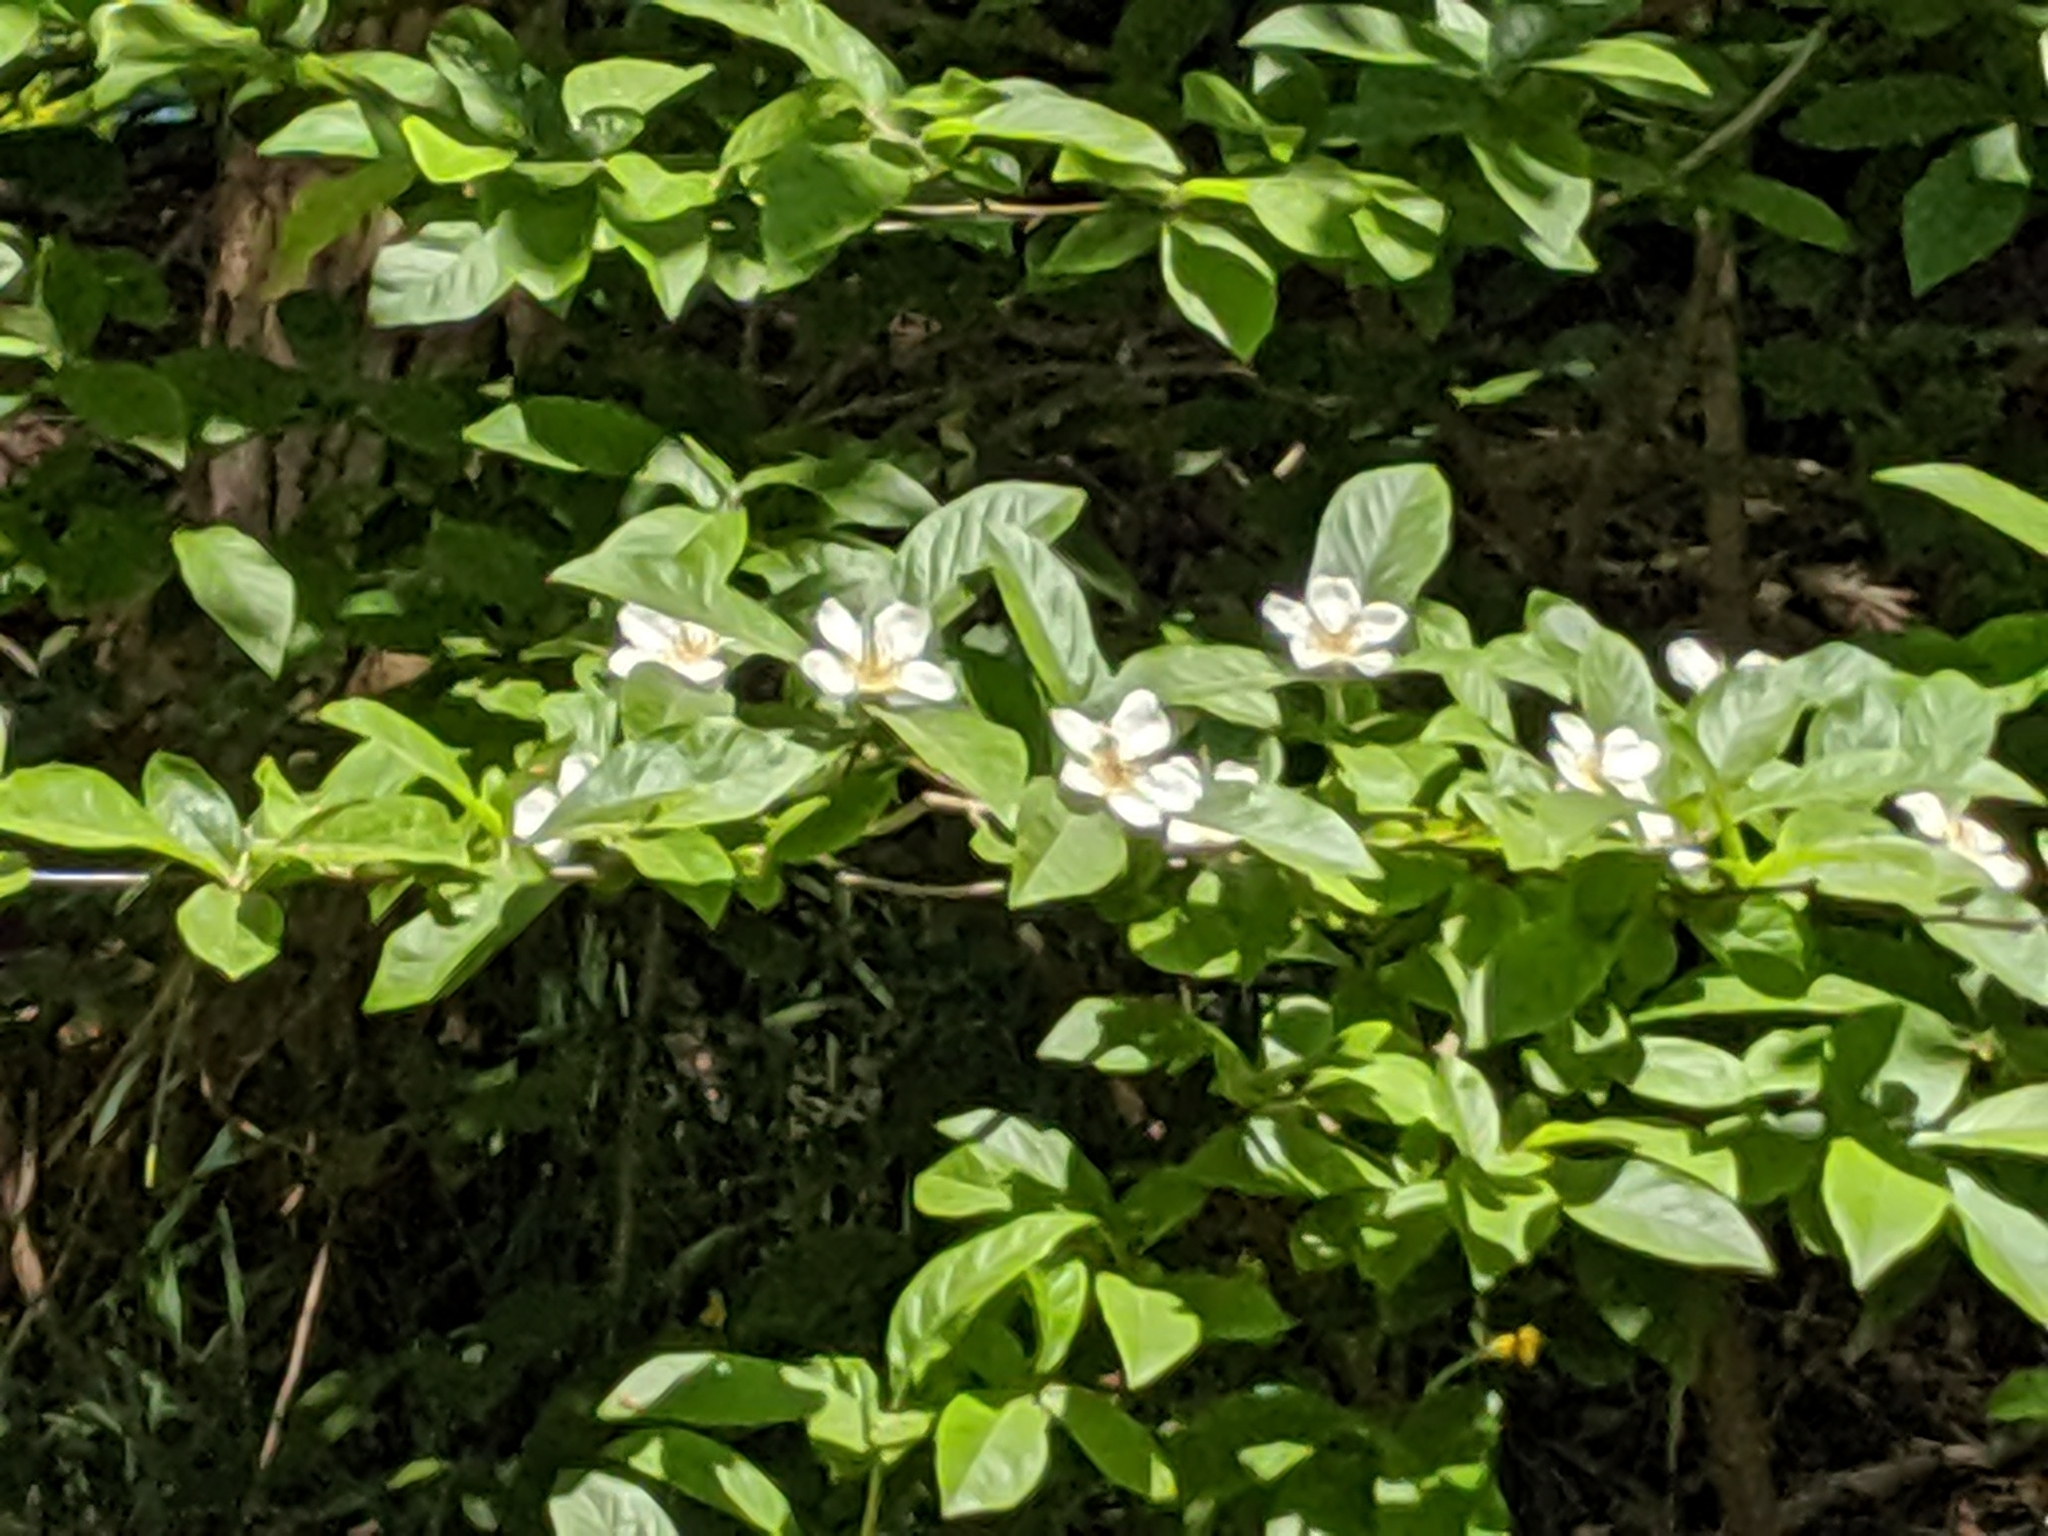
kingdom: Plantae
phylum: Tracheophyta
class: Magnoliopsida
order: Rosales
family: Rosaceae
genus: Mespilus
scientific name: Mespilus germanica
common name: Medlar
